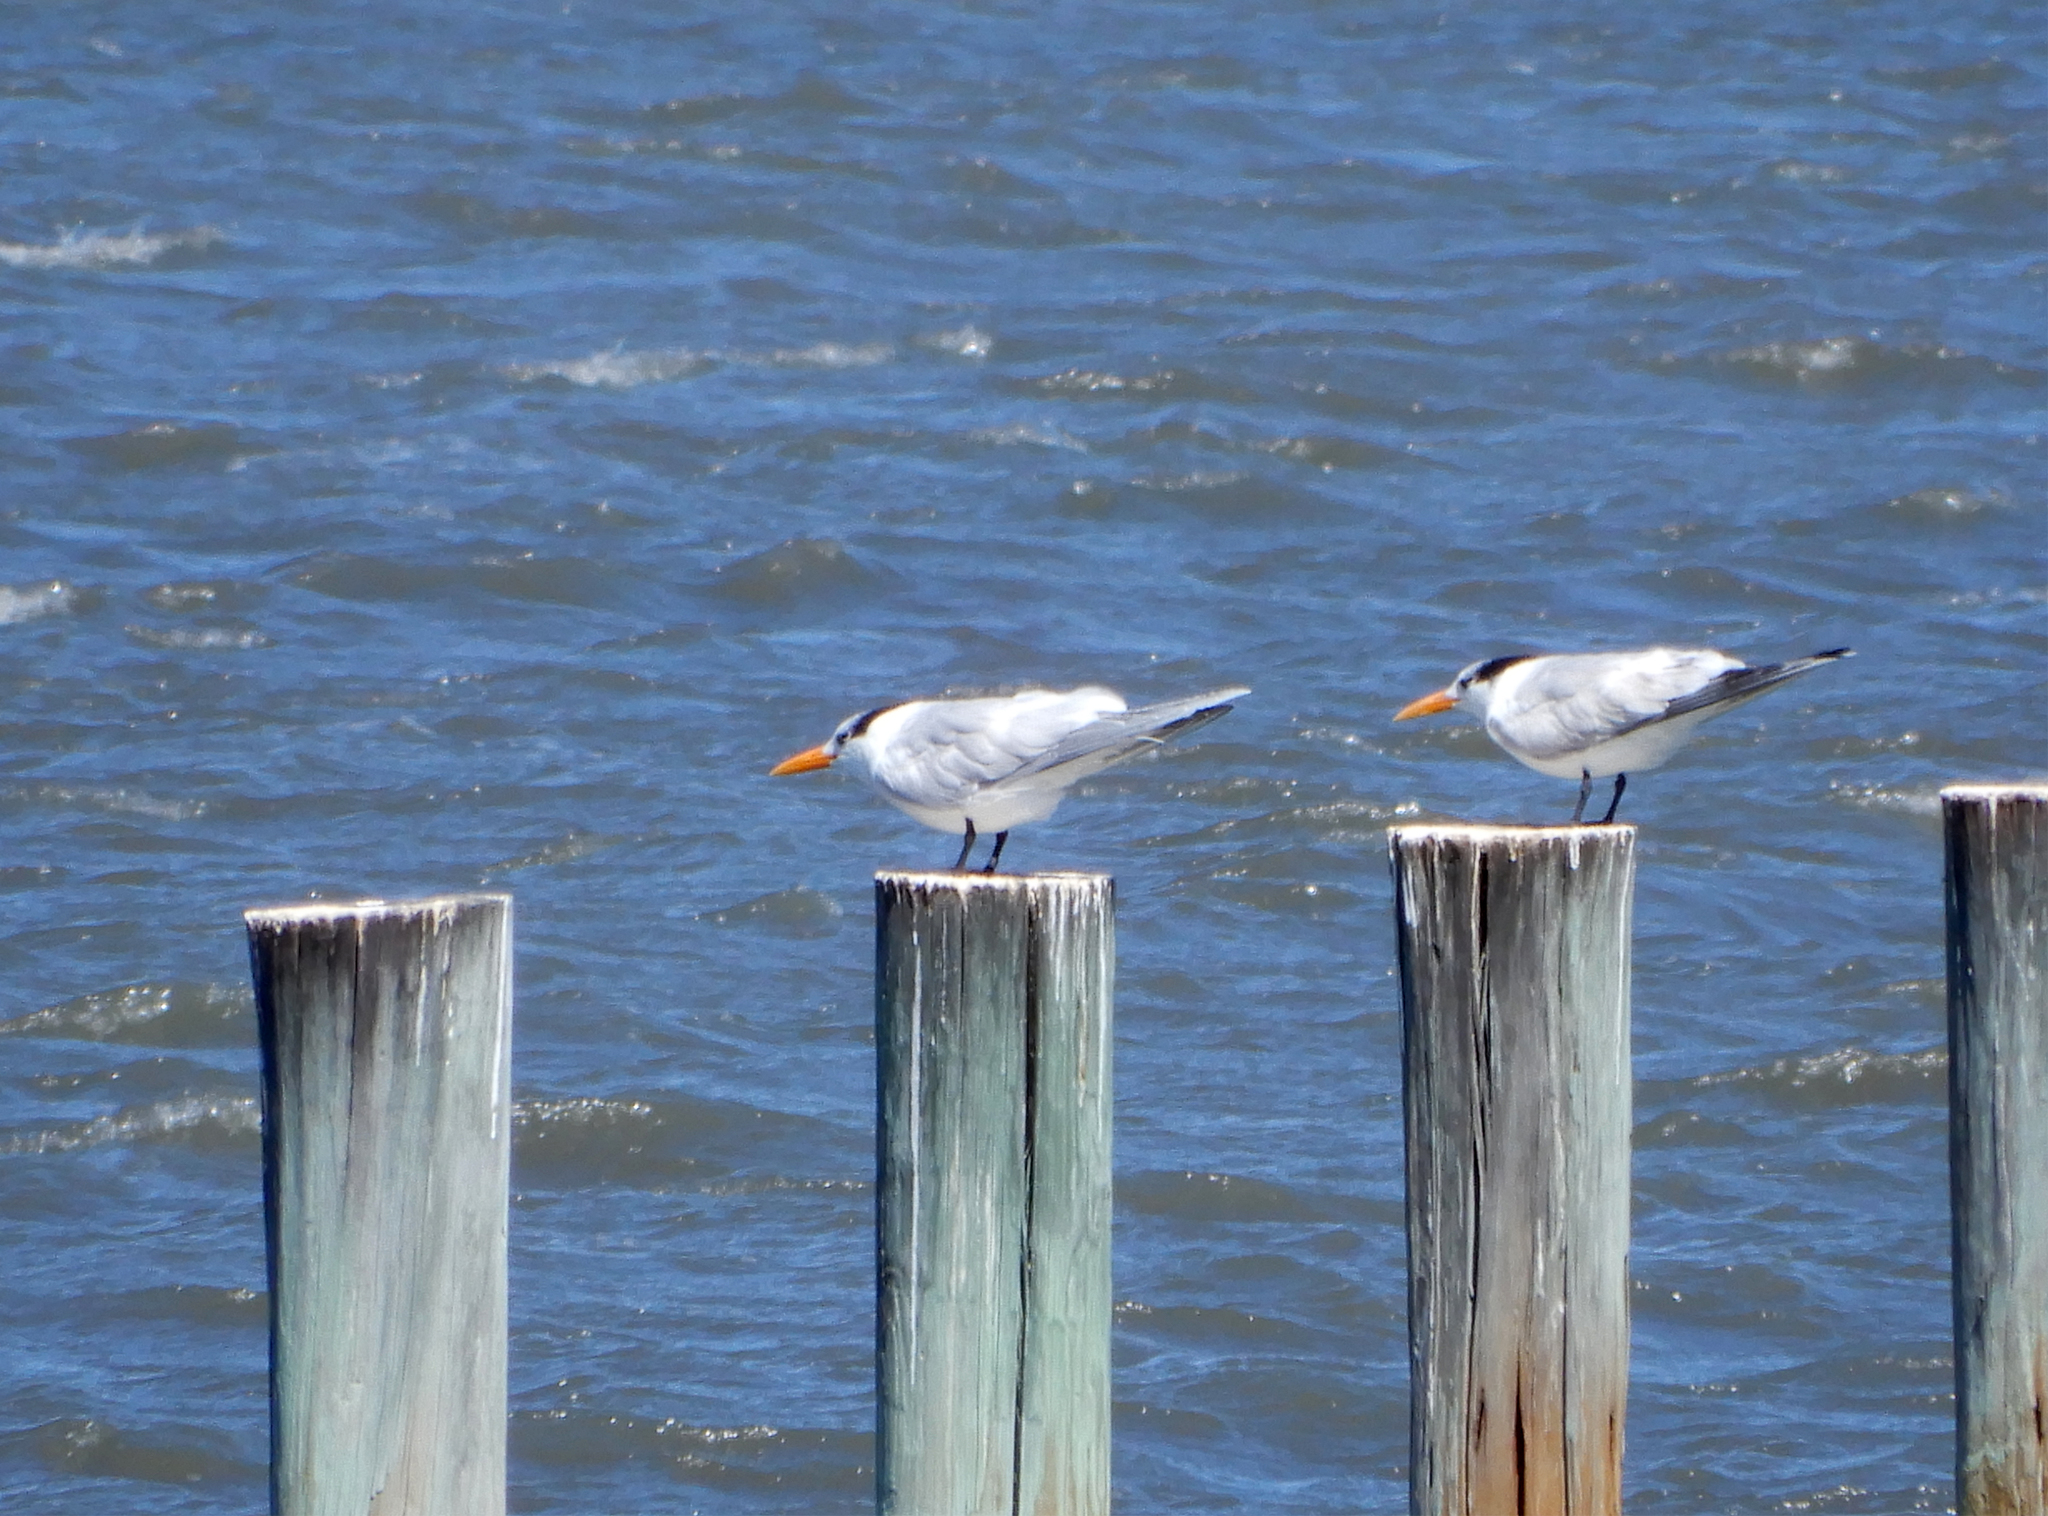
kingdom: Animalia
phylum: Chordata
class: Aves
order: Charadriiformes
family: Laridae
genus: Thalasseus
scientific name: Thalasseus maximus
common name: Royal tern
